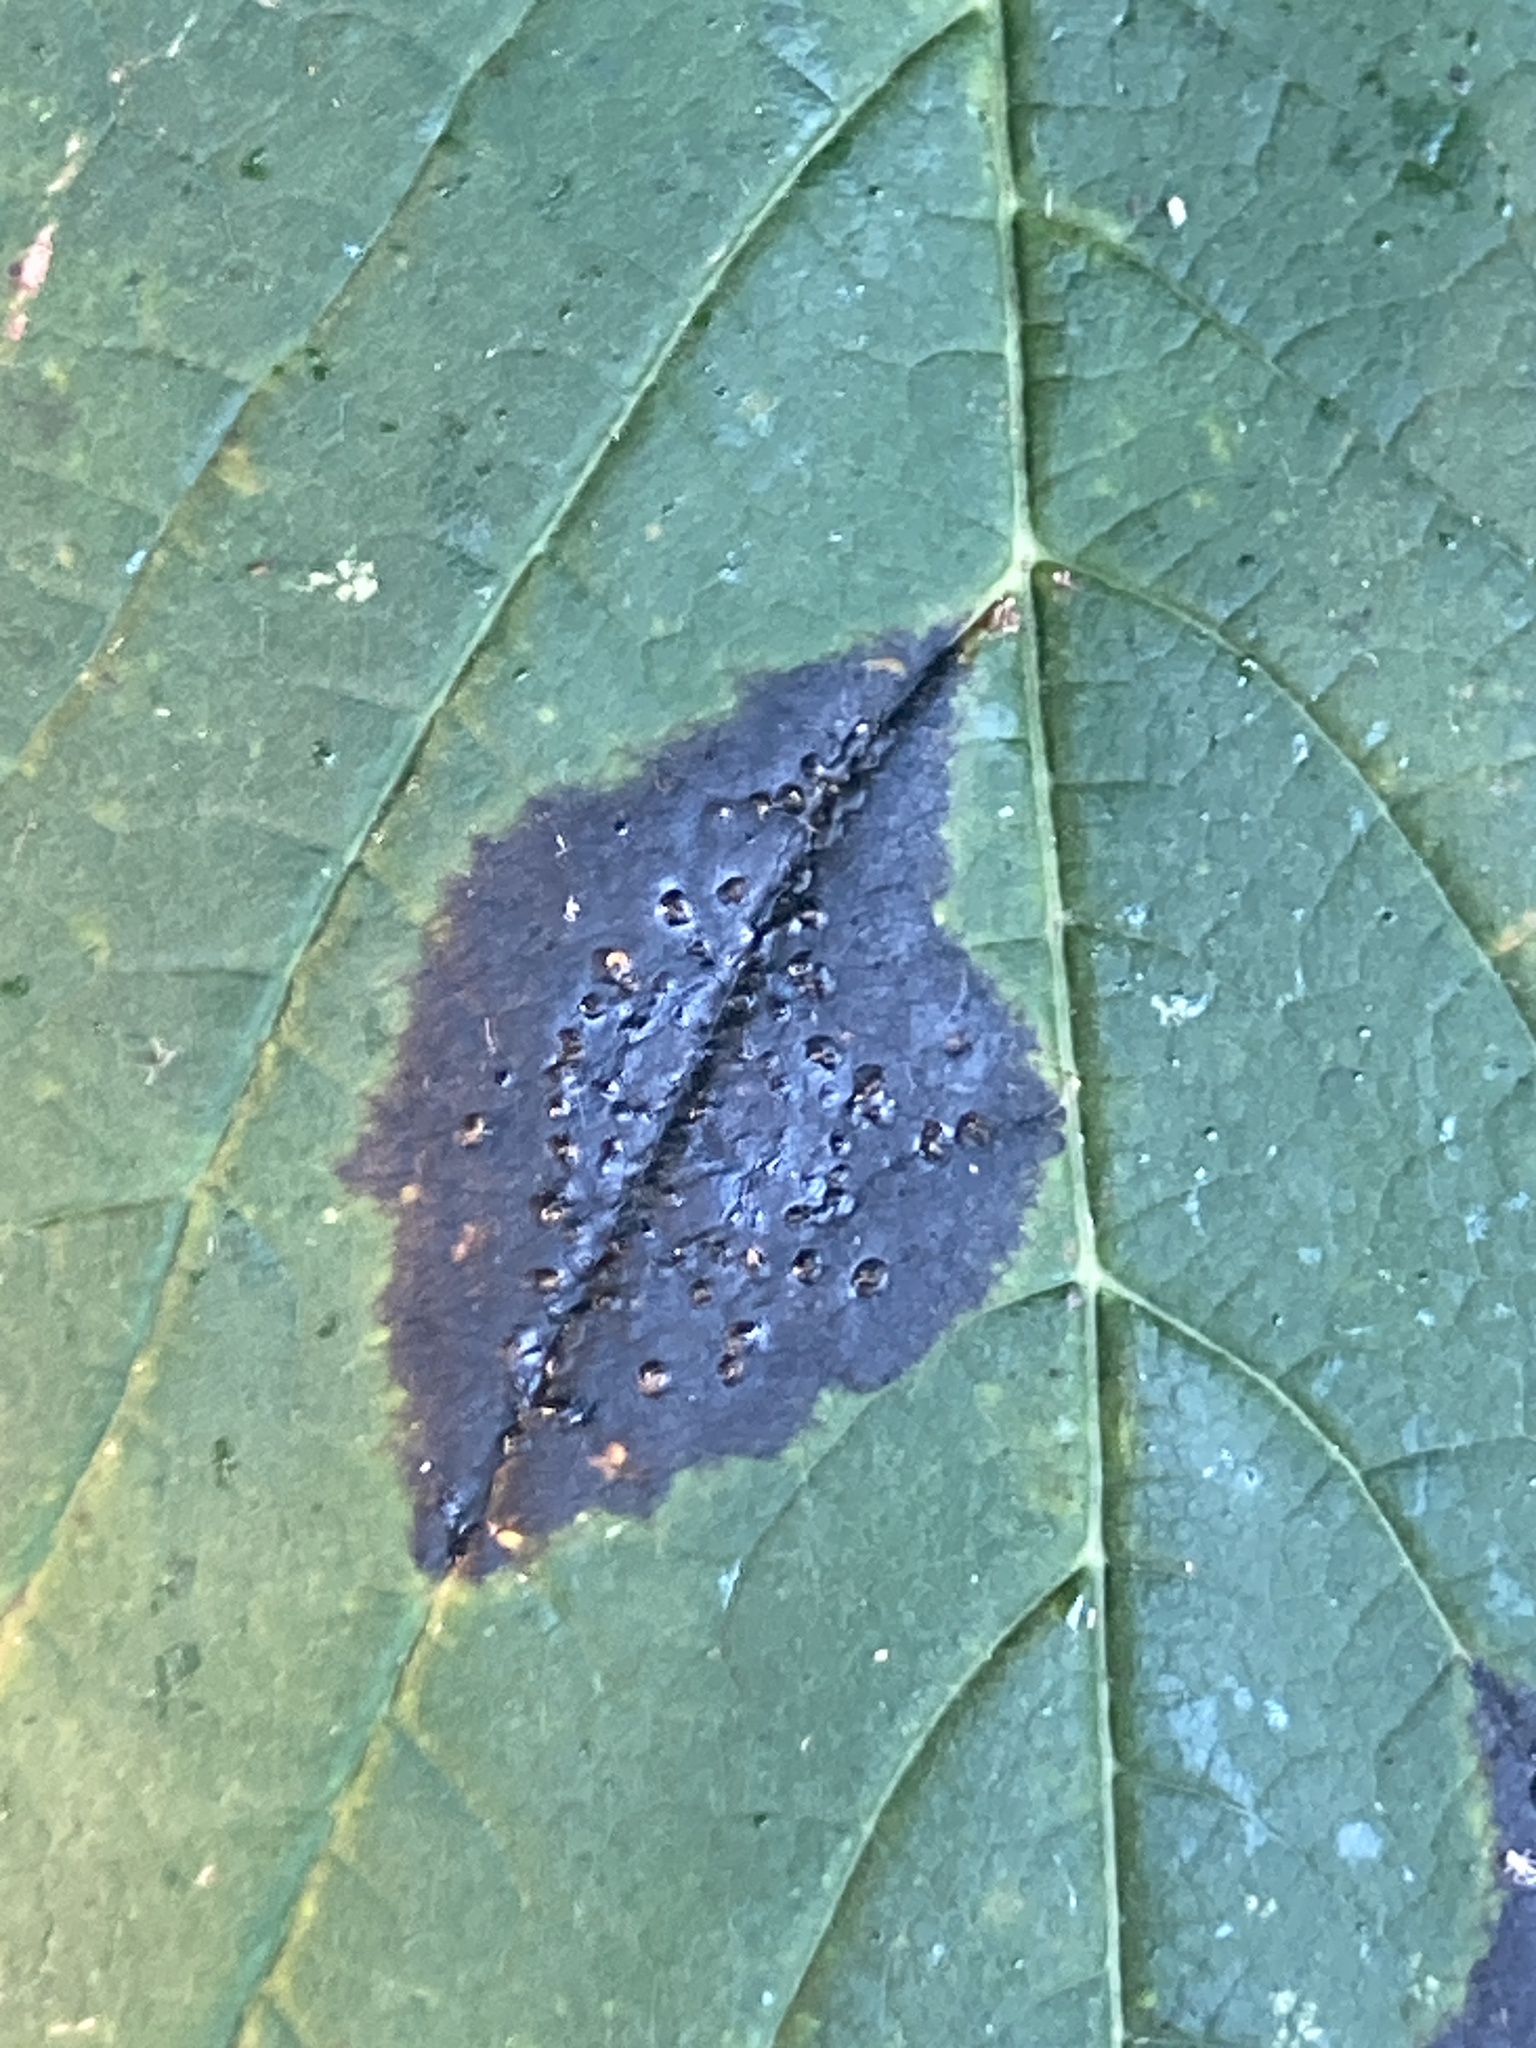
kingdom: Fungi
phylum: Ascomycota
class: Leotiomycetes
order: Rhytismatales
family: Rhytismataceae
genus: Rhytisma
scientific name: Rhytisma acerinum
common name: European tar spot
